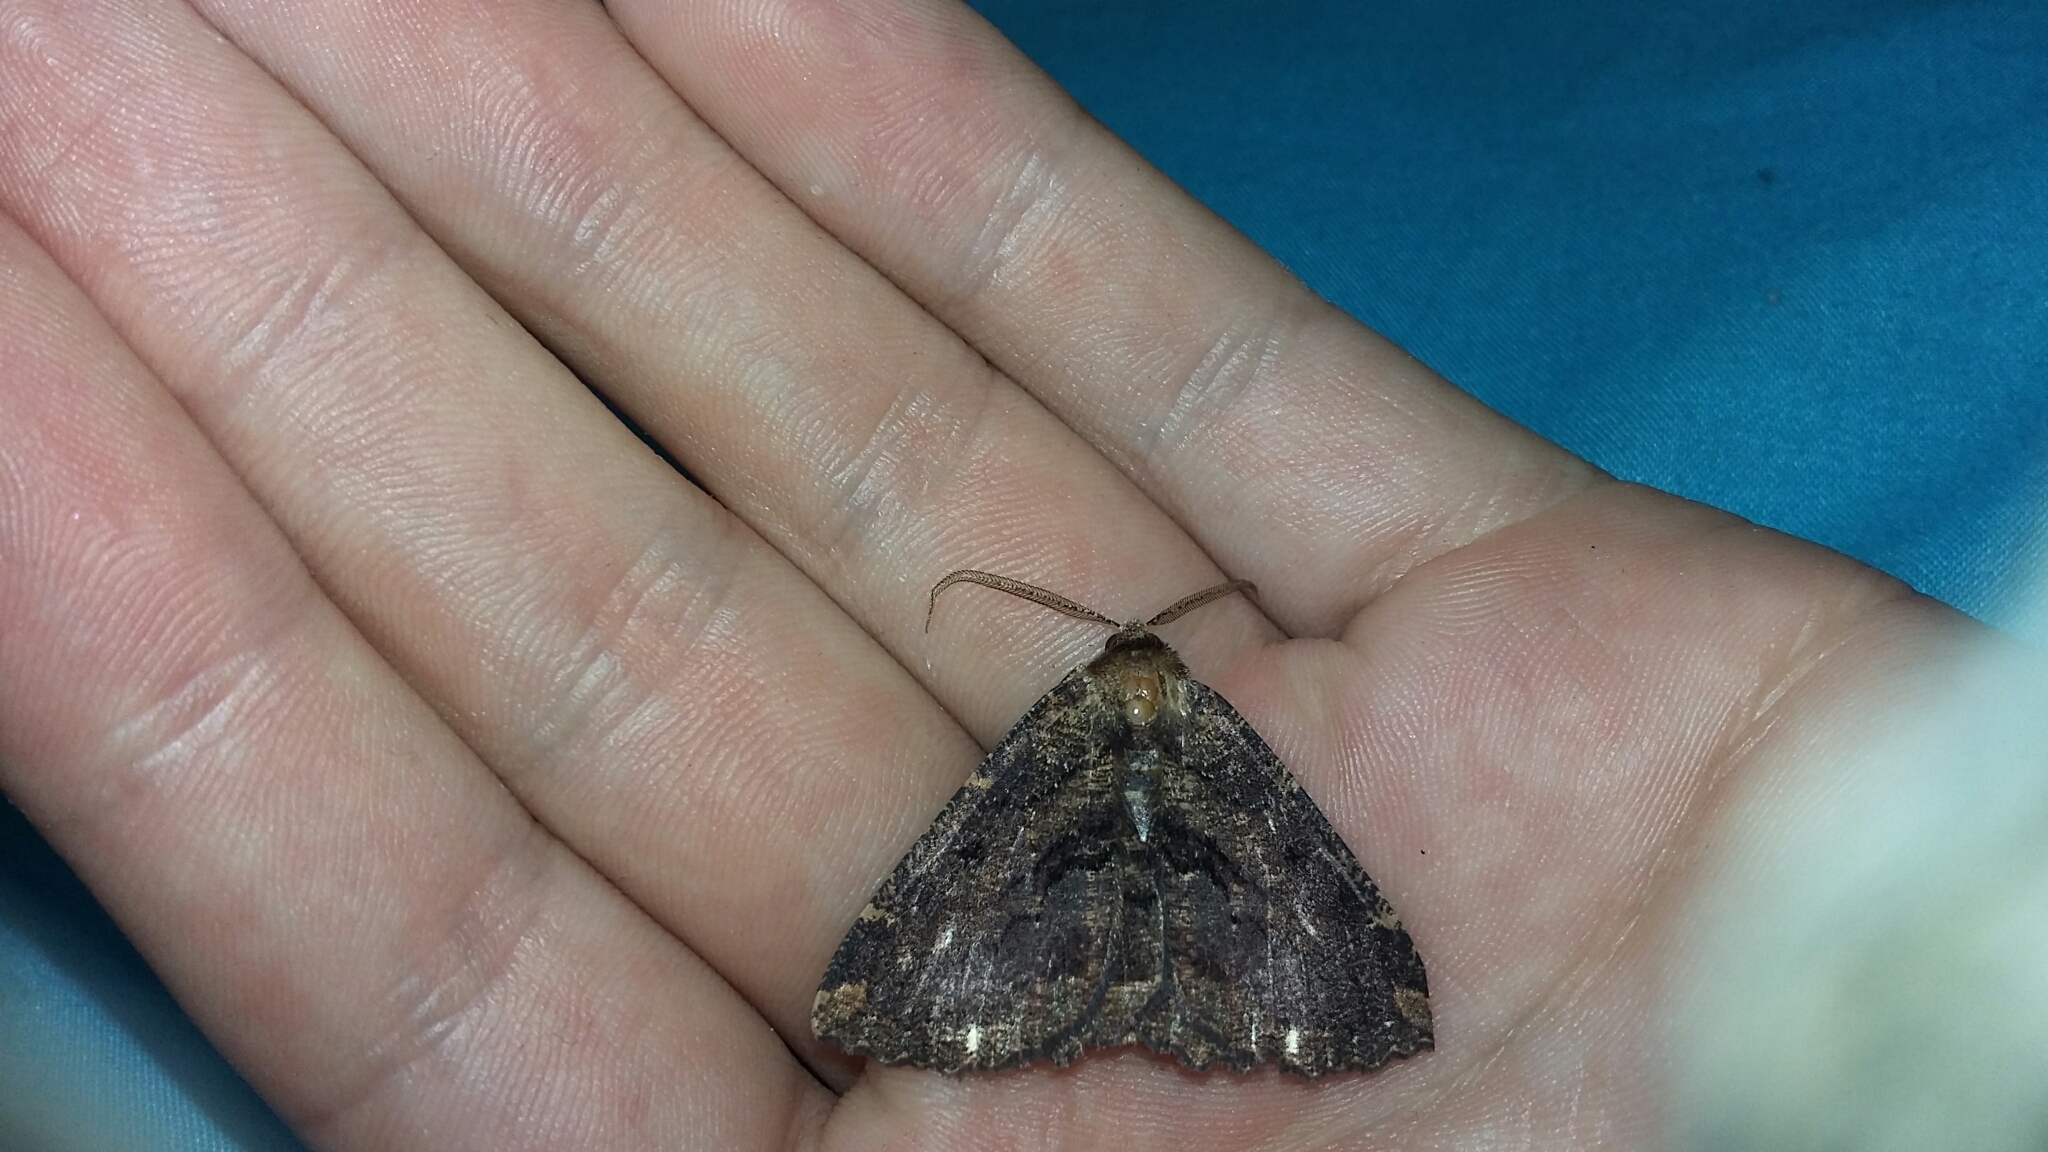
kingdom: Animalia
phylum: Arthropoda
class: Insecta
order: Lepidoptera
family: Geometridae
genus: Gellonia
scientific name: Gellonia dejectaria
